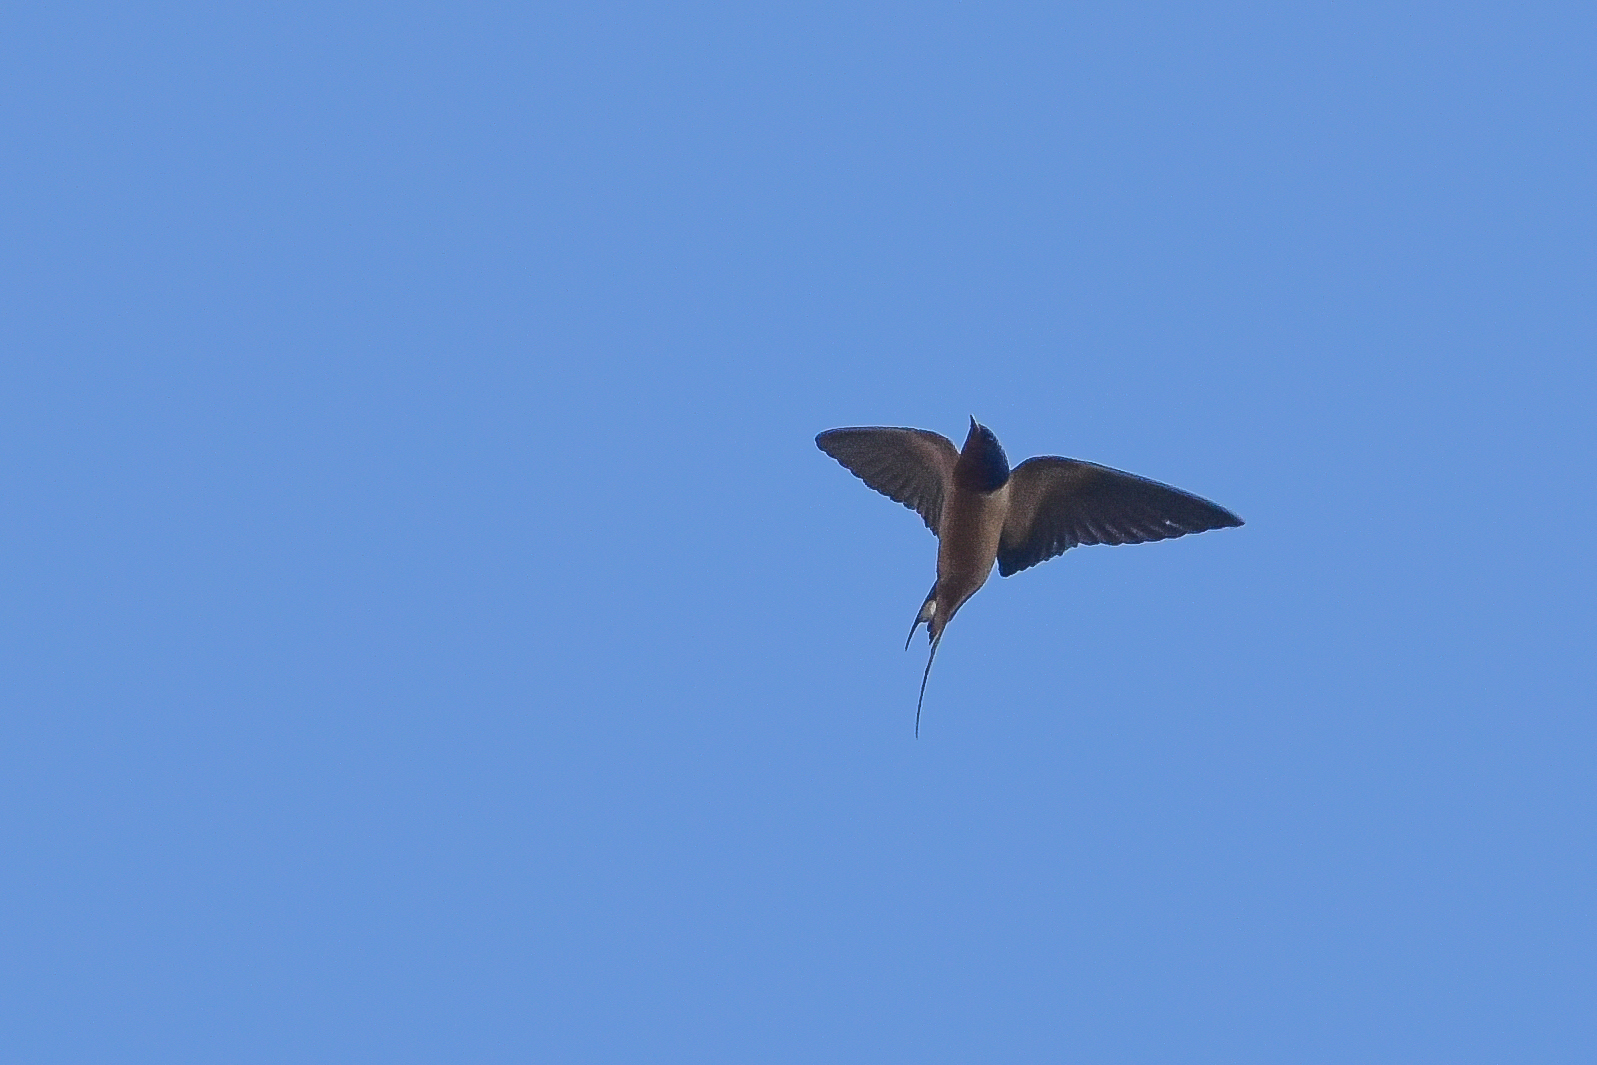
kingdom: Animalia
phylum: Chordata
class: Aves
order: Passeriformes
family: Hirundinidae
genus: Hirundo
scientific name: Hirundo rustica
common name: Barn swallow
